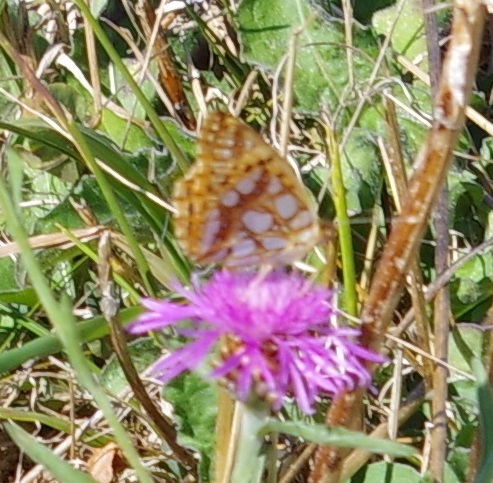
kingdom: Animalia
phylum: Arthropoda
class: Insecta
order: Lepidoptera
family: Nymphalidae
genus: Issoria
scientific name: Issoria lathonia
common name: Queen of spain fritillary
